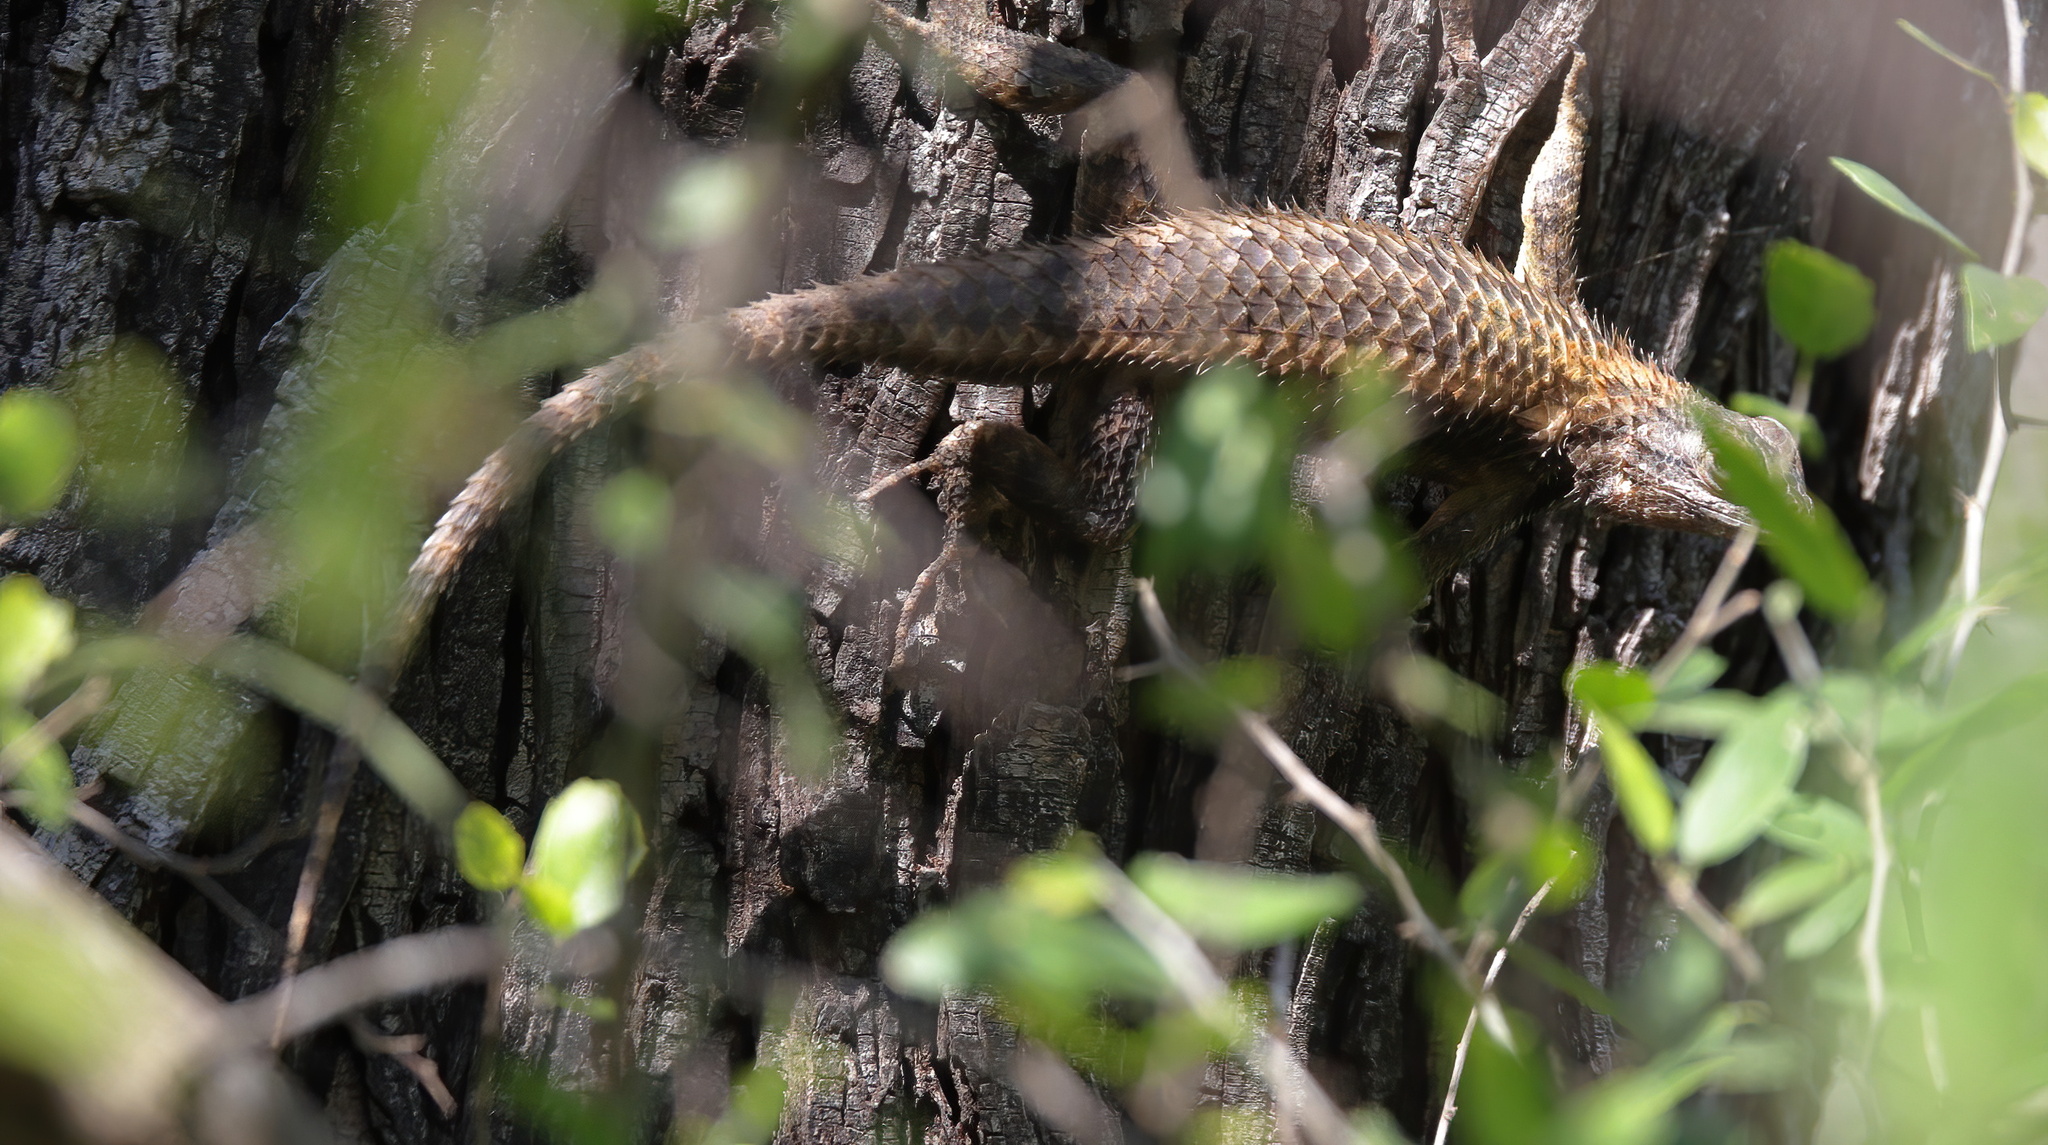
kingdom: Animalia
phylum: Chordata
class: Squamata
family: Phrynosomatidae
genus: Sceloporus
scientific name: Sceloporus olivaceus
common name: Texas spiny lizard
